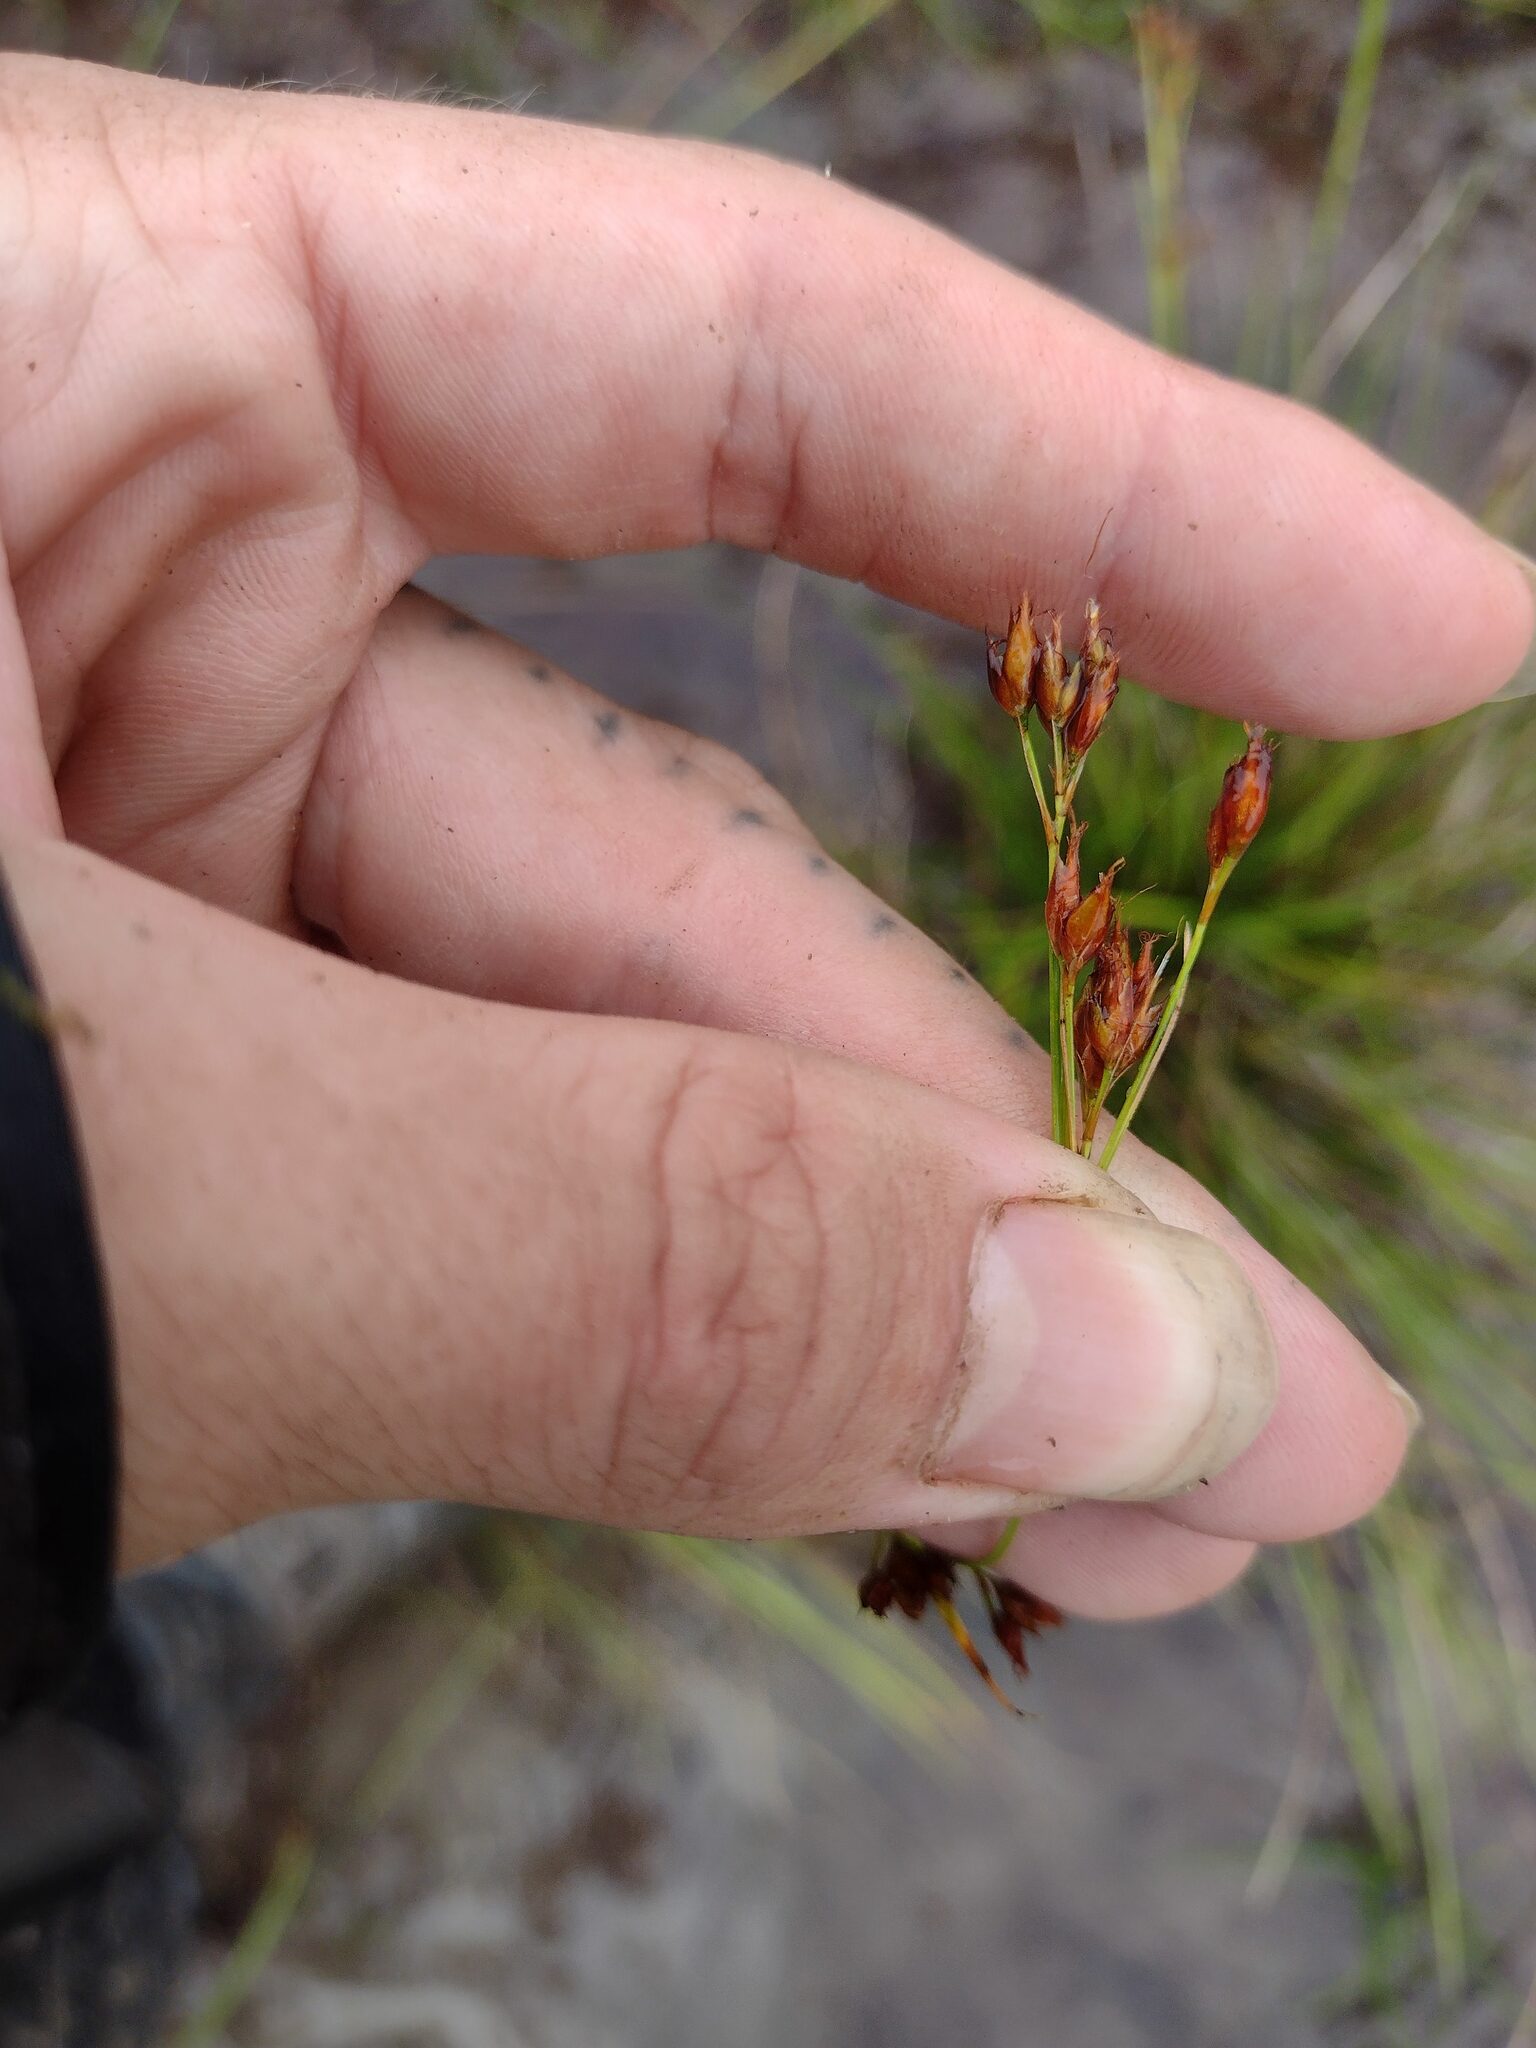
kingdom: Plantae
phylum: Tracheophyta
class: Liliopsida
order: Poales
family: Cyperaceae
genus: Rhynchospora
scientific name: Rhynchospora chinensis
